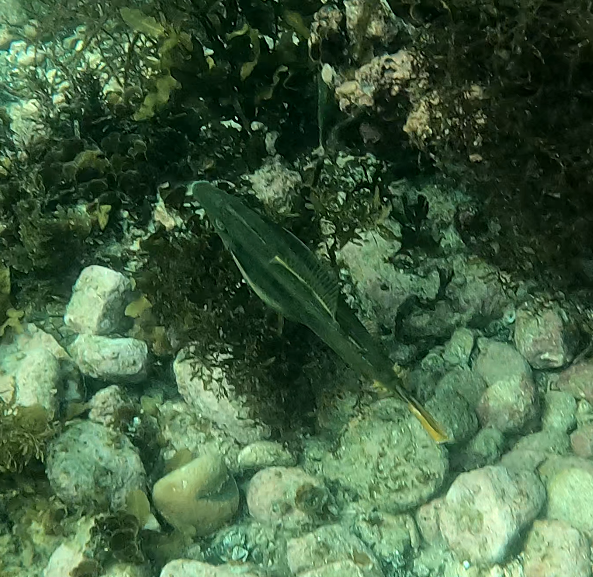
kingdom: Animalia
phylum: Chordata
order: Tetraodontiformes
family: Monacanthidae
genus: Meuschenia
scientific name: Meuschenia trachylepis
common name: Yellowfin leatherjacket
